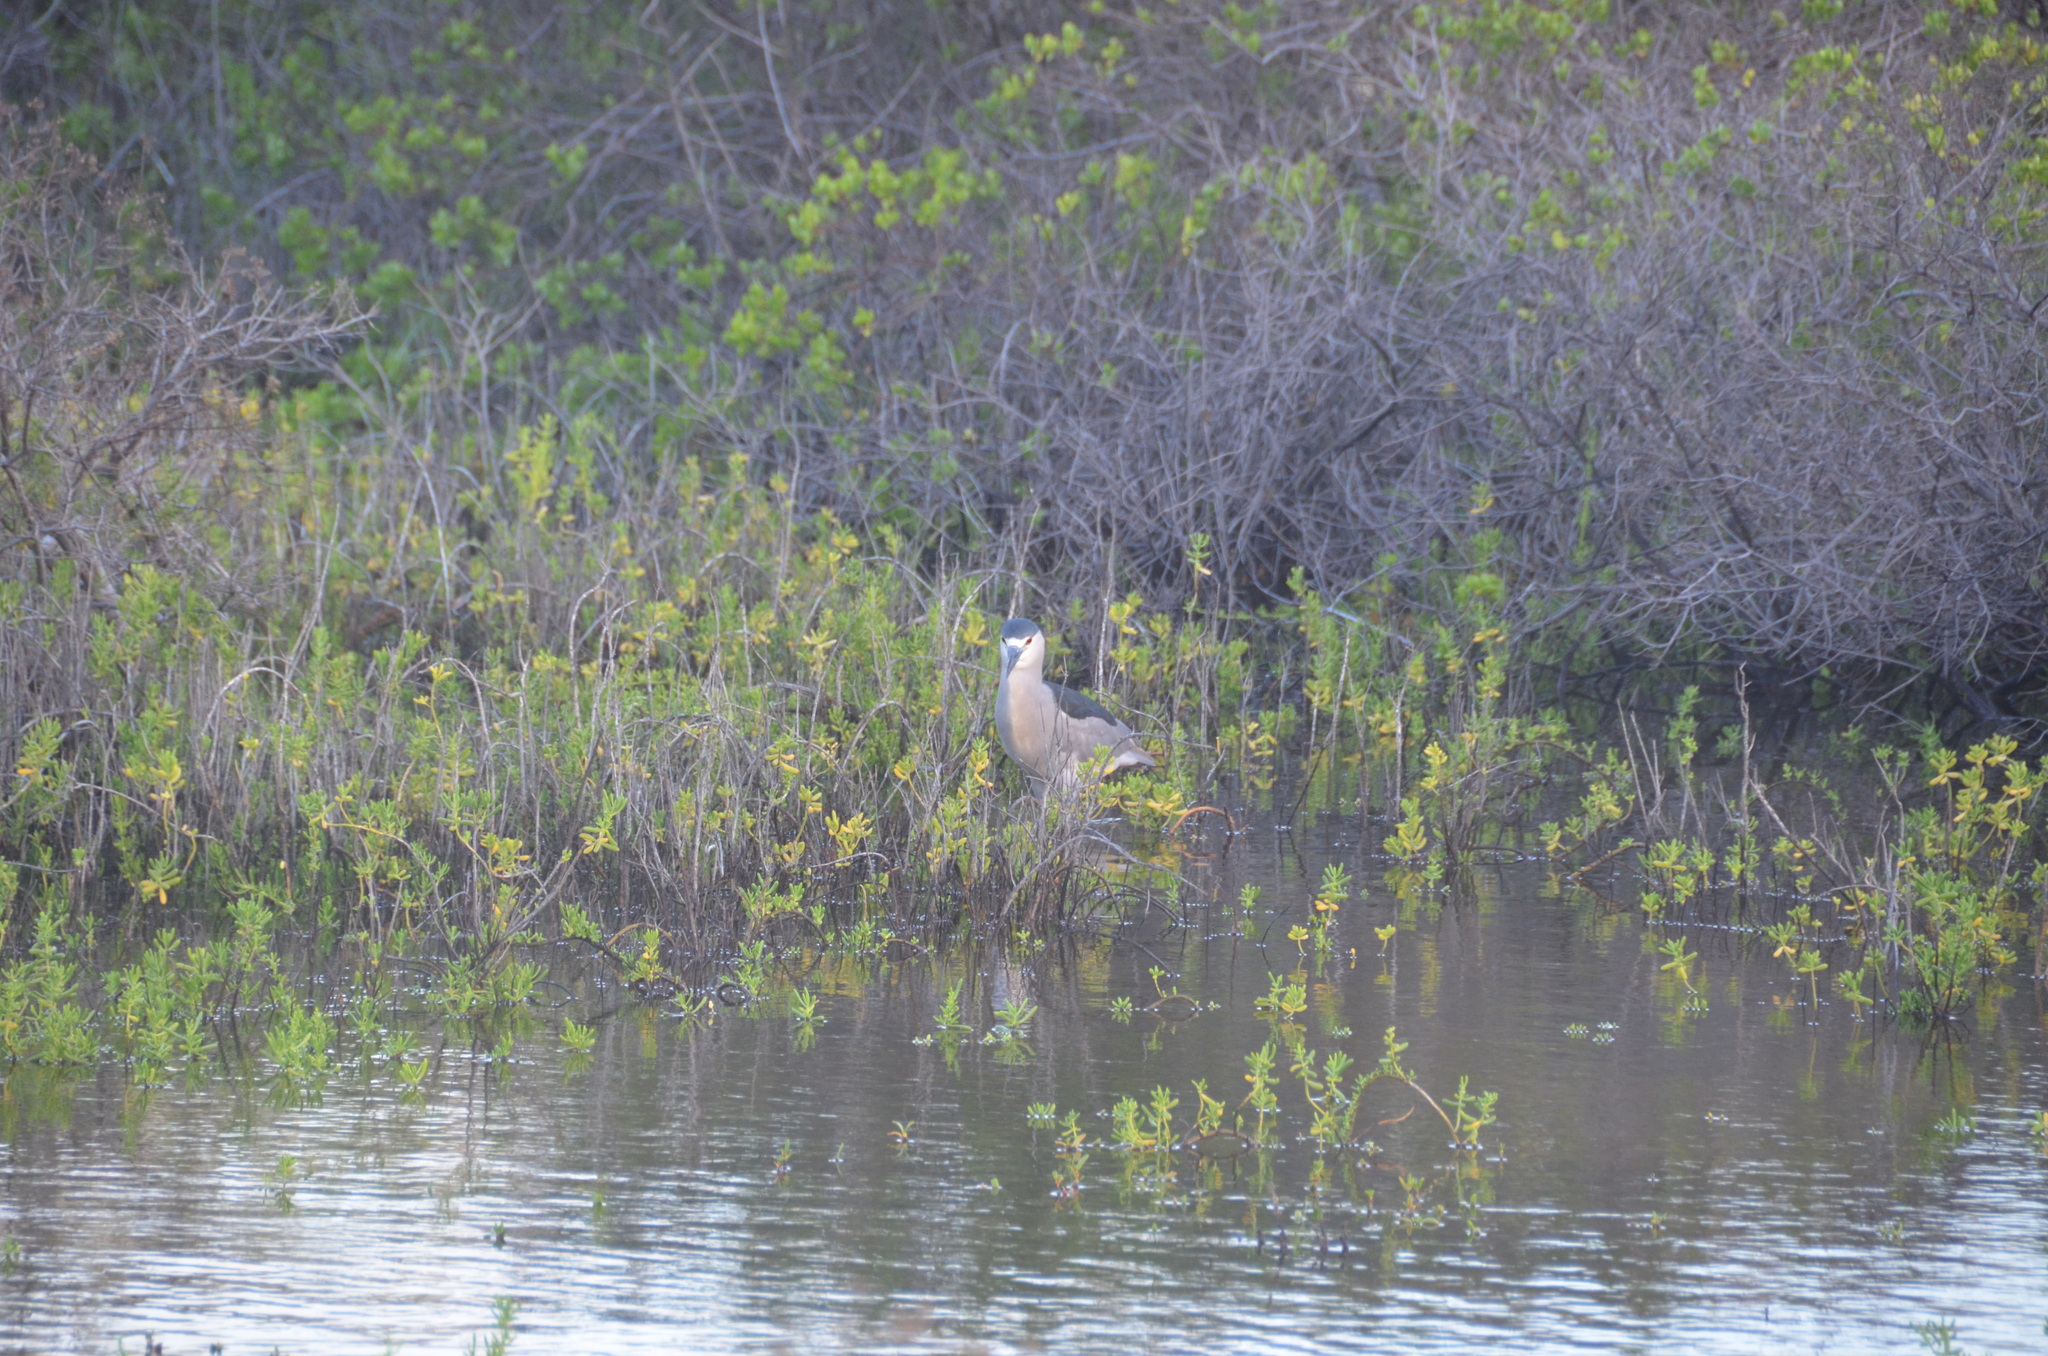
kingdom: Animalia
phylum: Chordata
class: Aves
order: Pelecaniformes
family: Ardeidae
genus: Nycticorax
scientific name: Nycticorax nycticorax
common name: Black-crowned night heron
